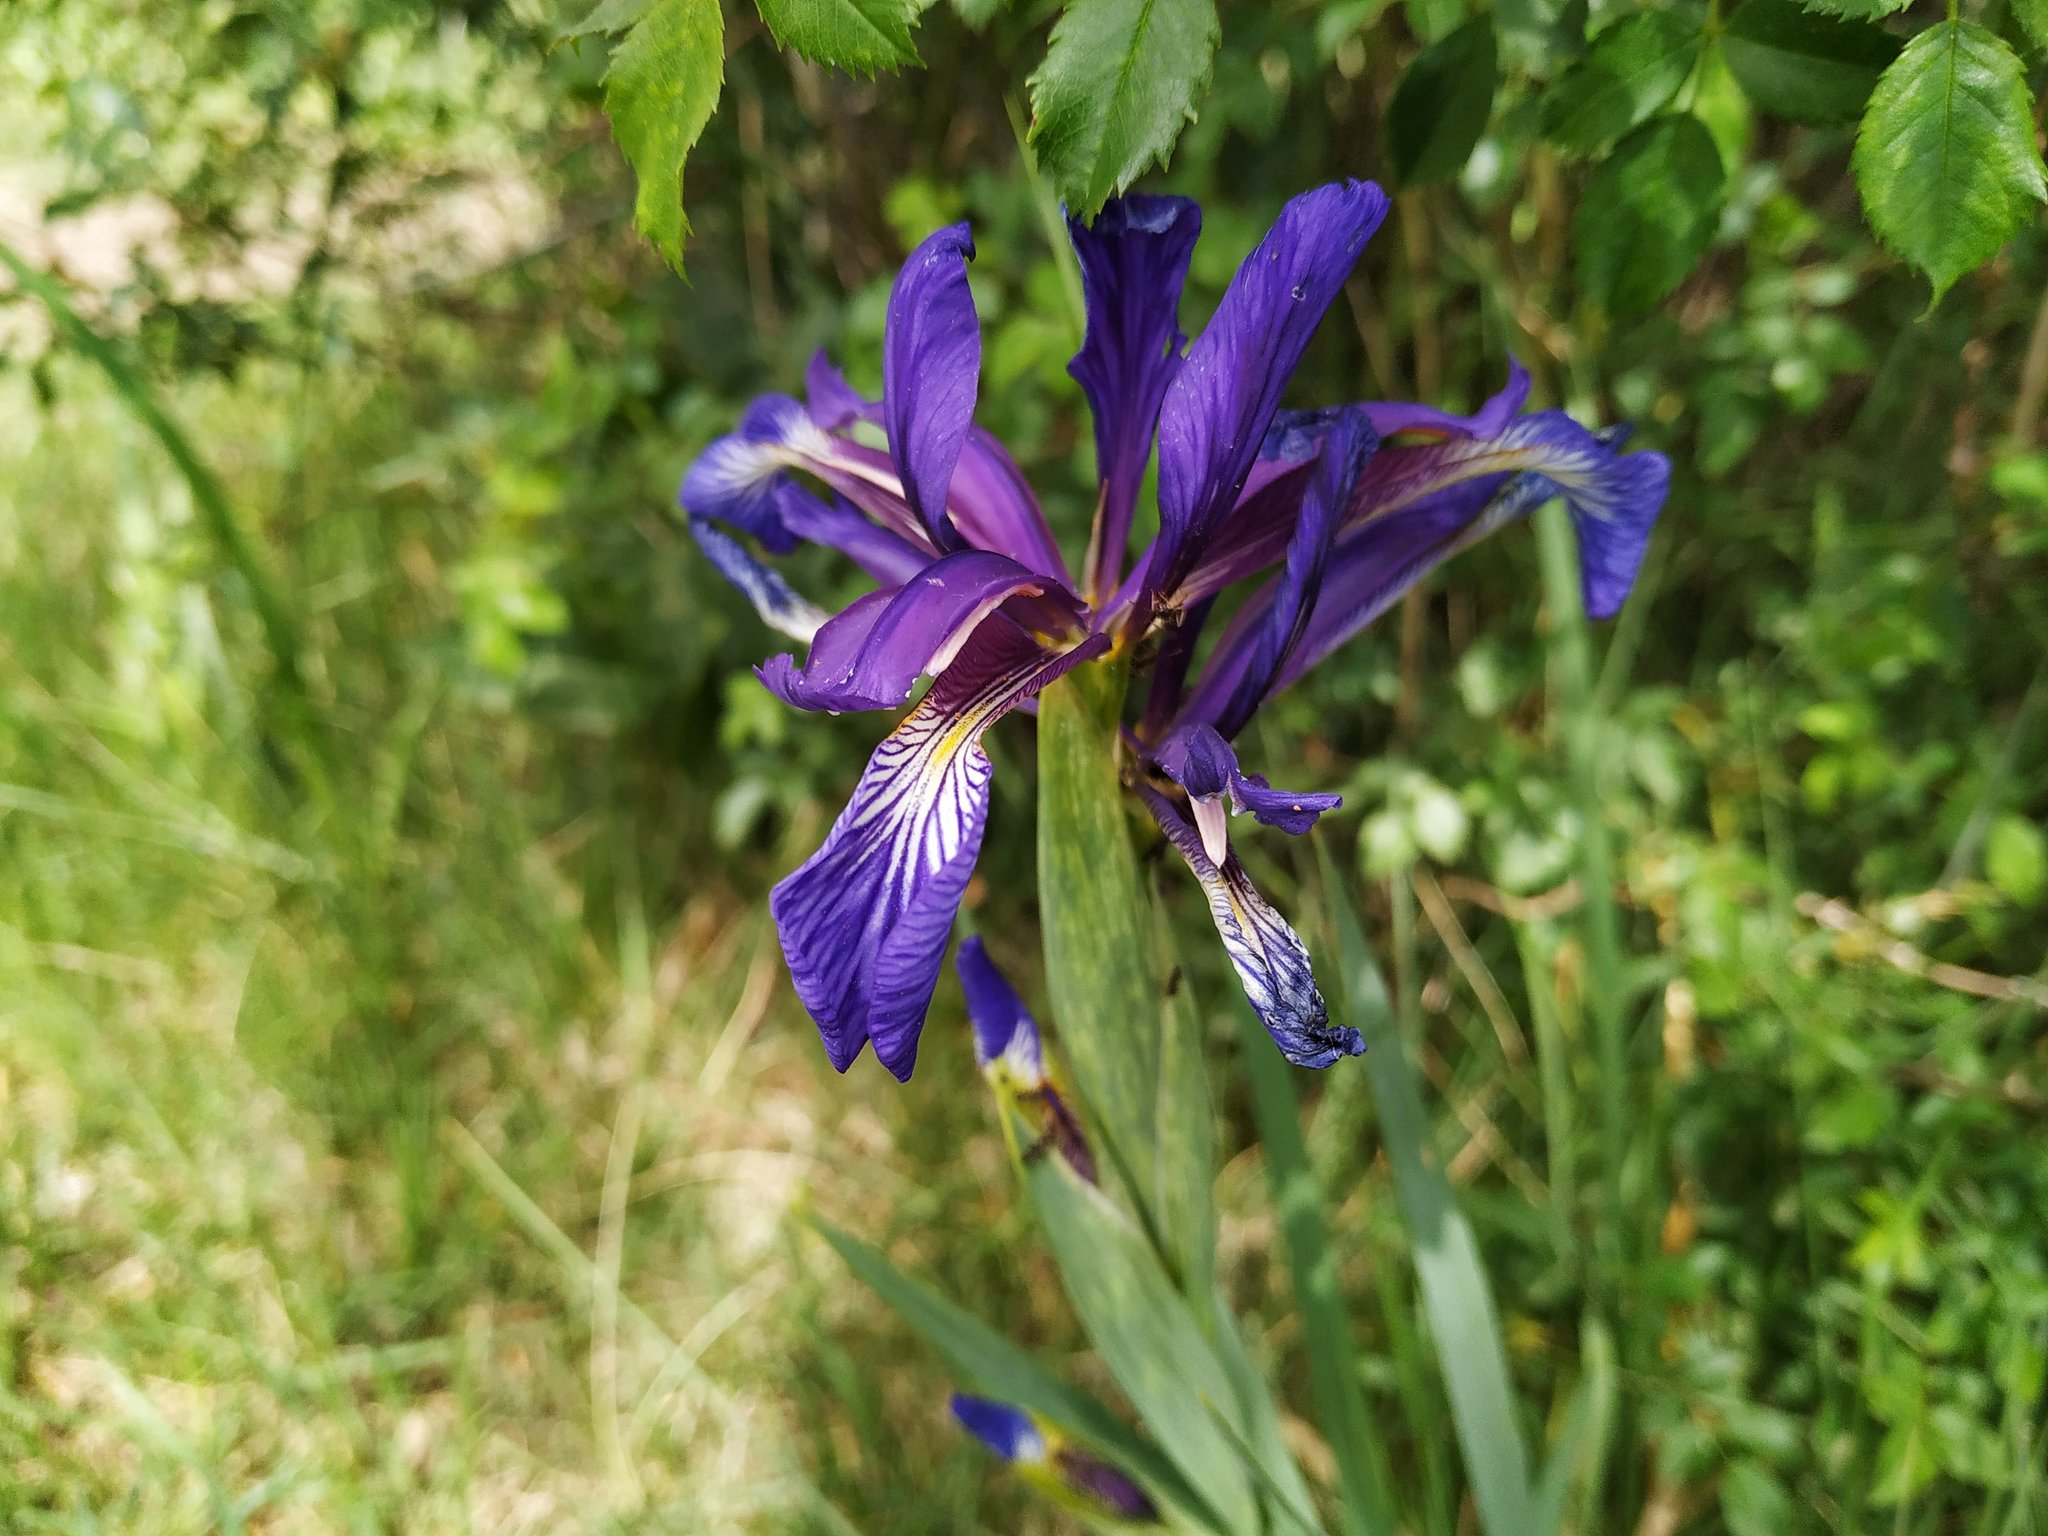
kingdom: Plantae
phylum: Tracheophyta
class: Liliopsida
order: Asparagales
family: Iridaceae
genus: Iris
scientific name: Iris reichenbachiana
